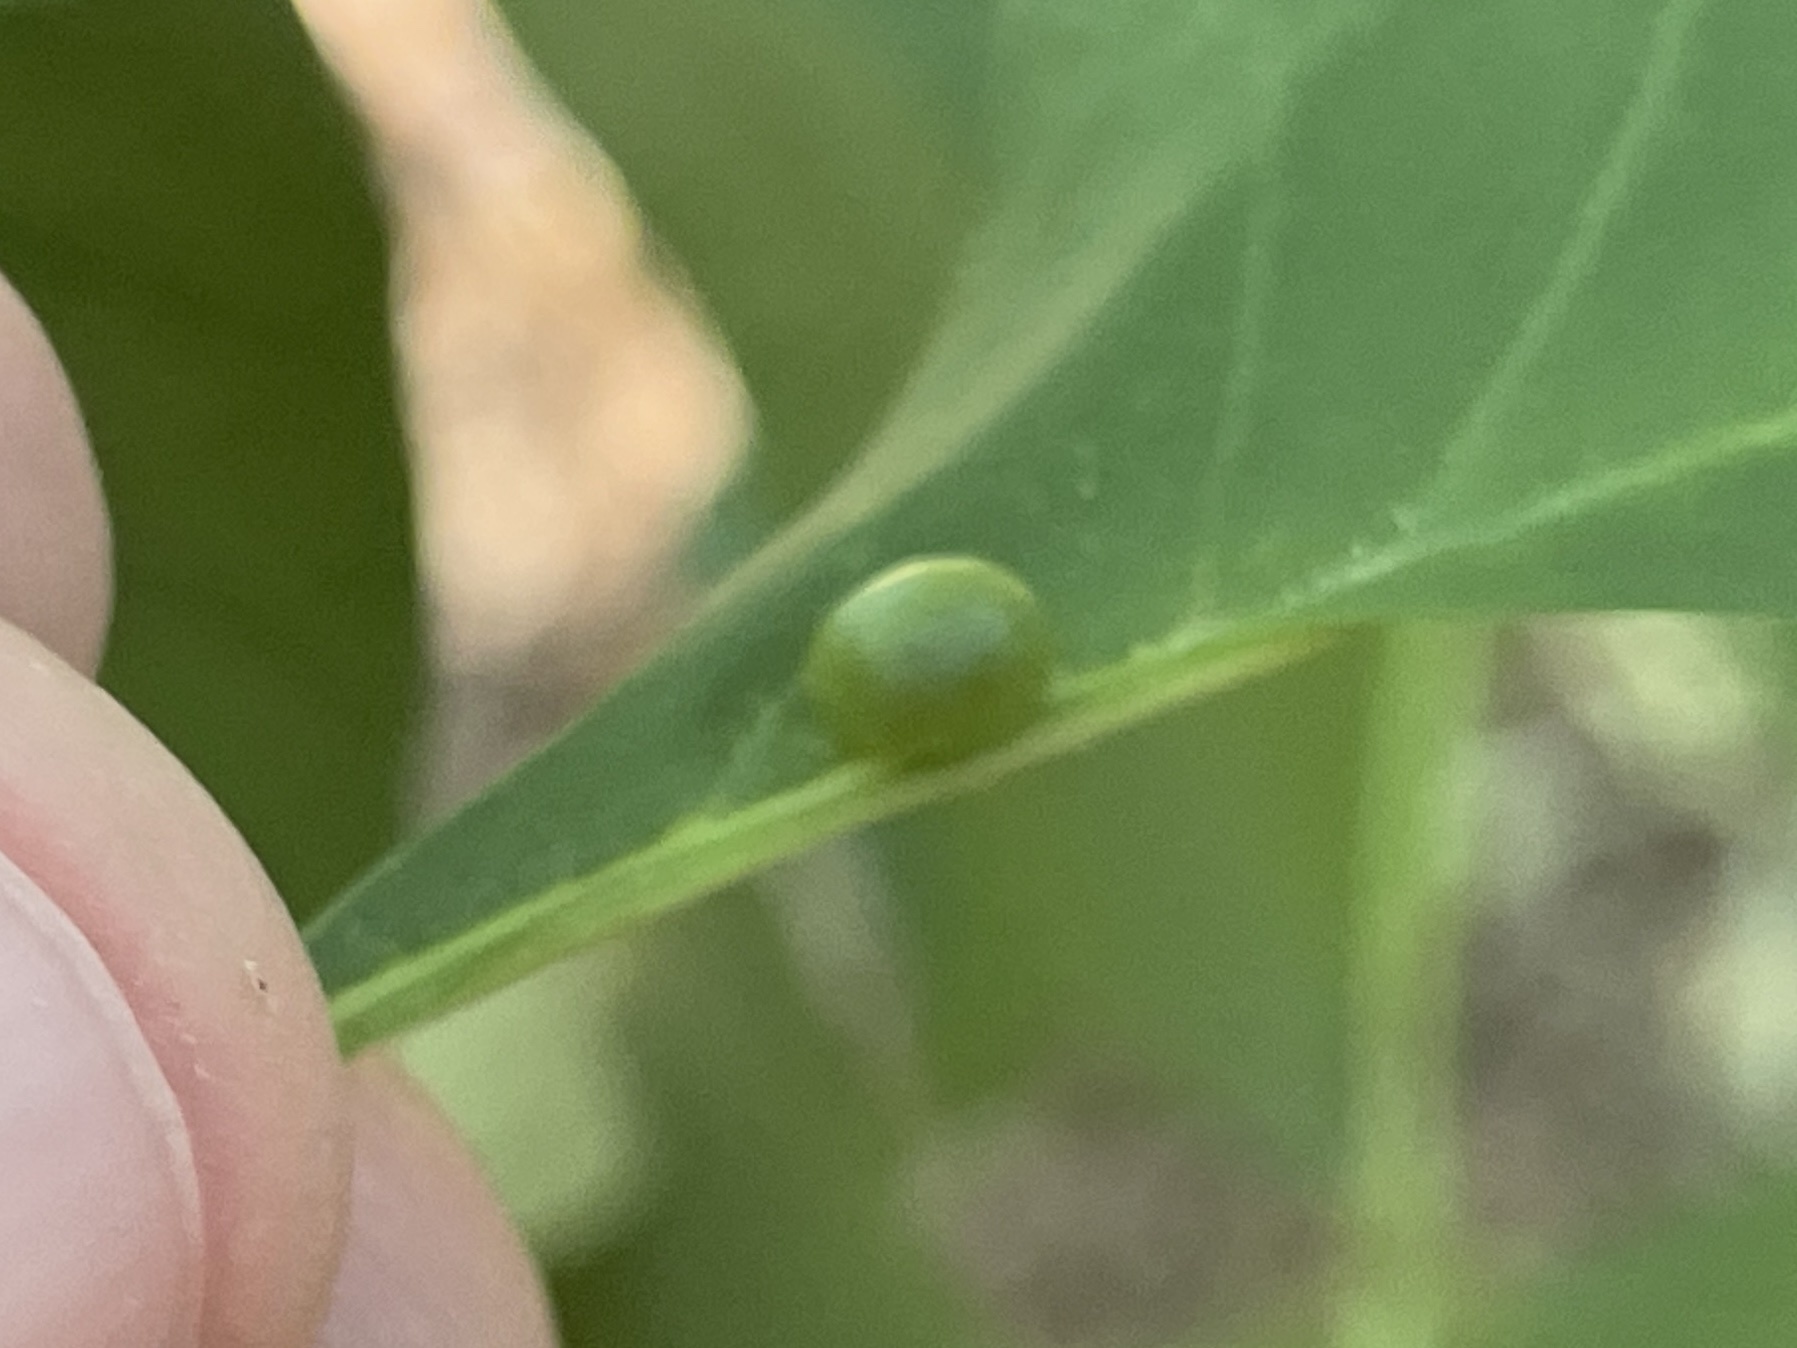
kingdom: Animalia
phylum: Arthropoda
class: Arachnida
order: Trombidiformes
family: Eriophyidae
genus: Aceria
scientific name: Aceria fraxinicola
